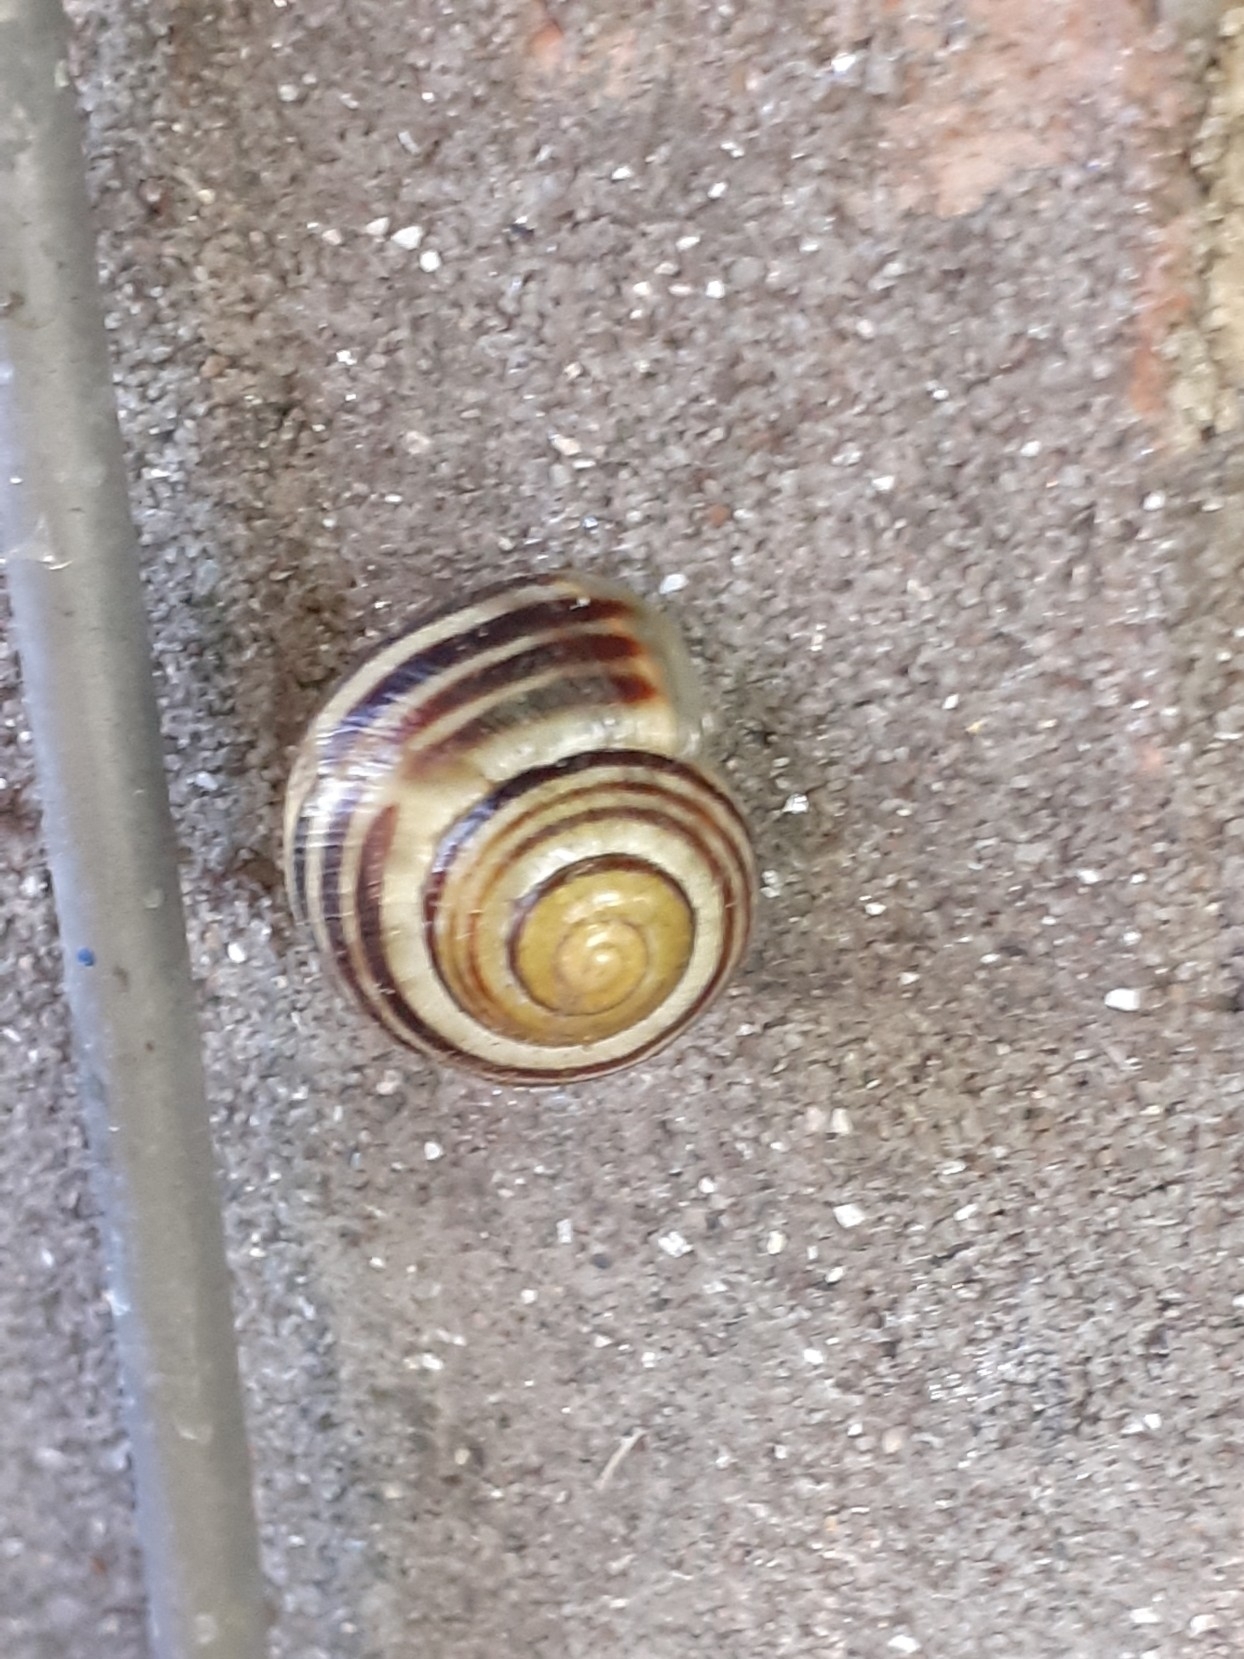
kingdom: Animalia
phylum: Mollusca
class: Gastropoda
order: Stylommatophora
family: Helicidae
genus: Cepaea
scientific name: Cepaea
